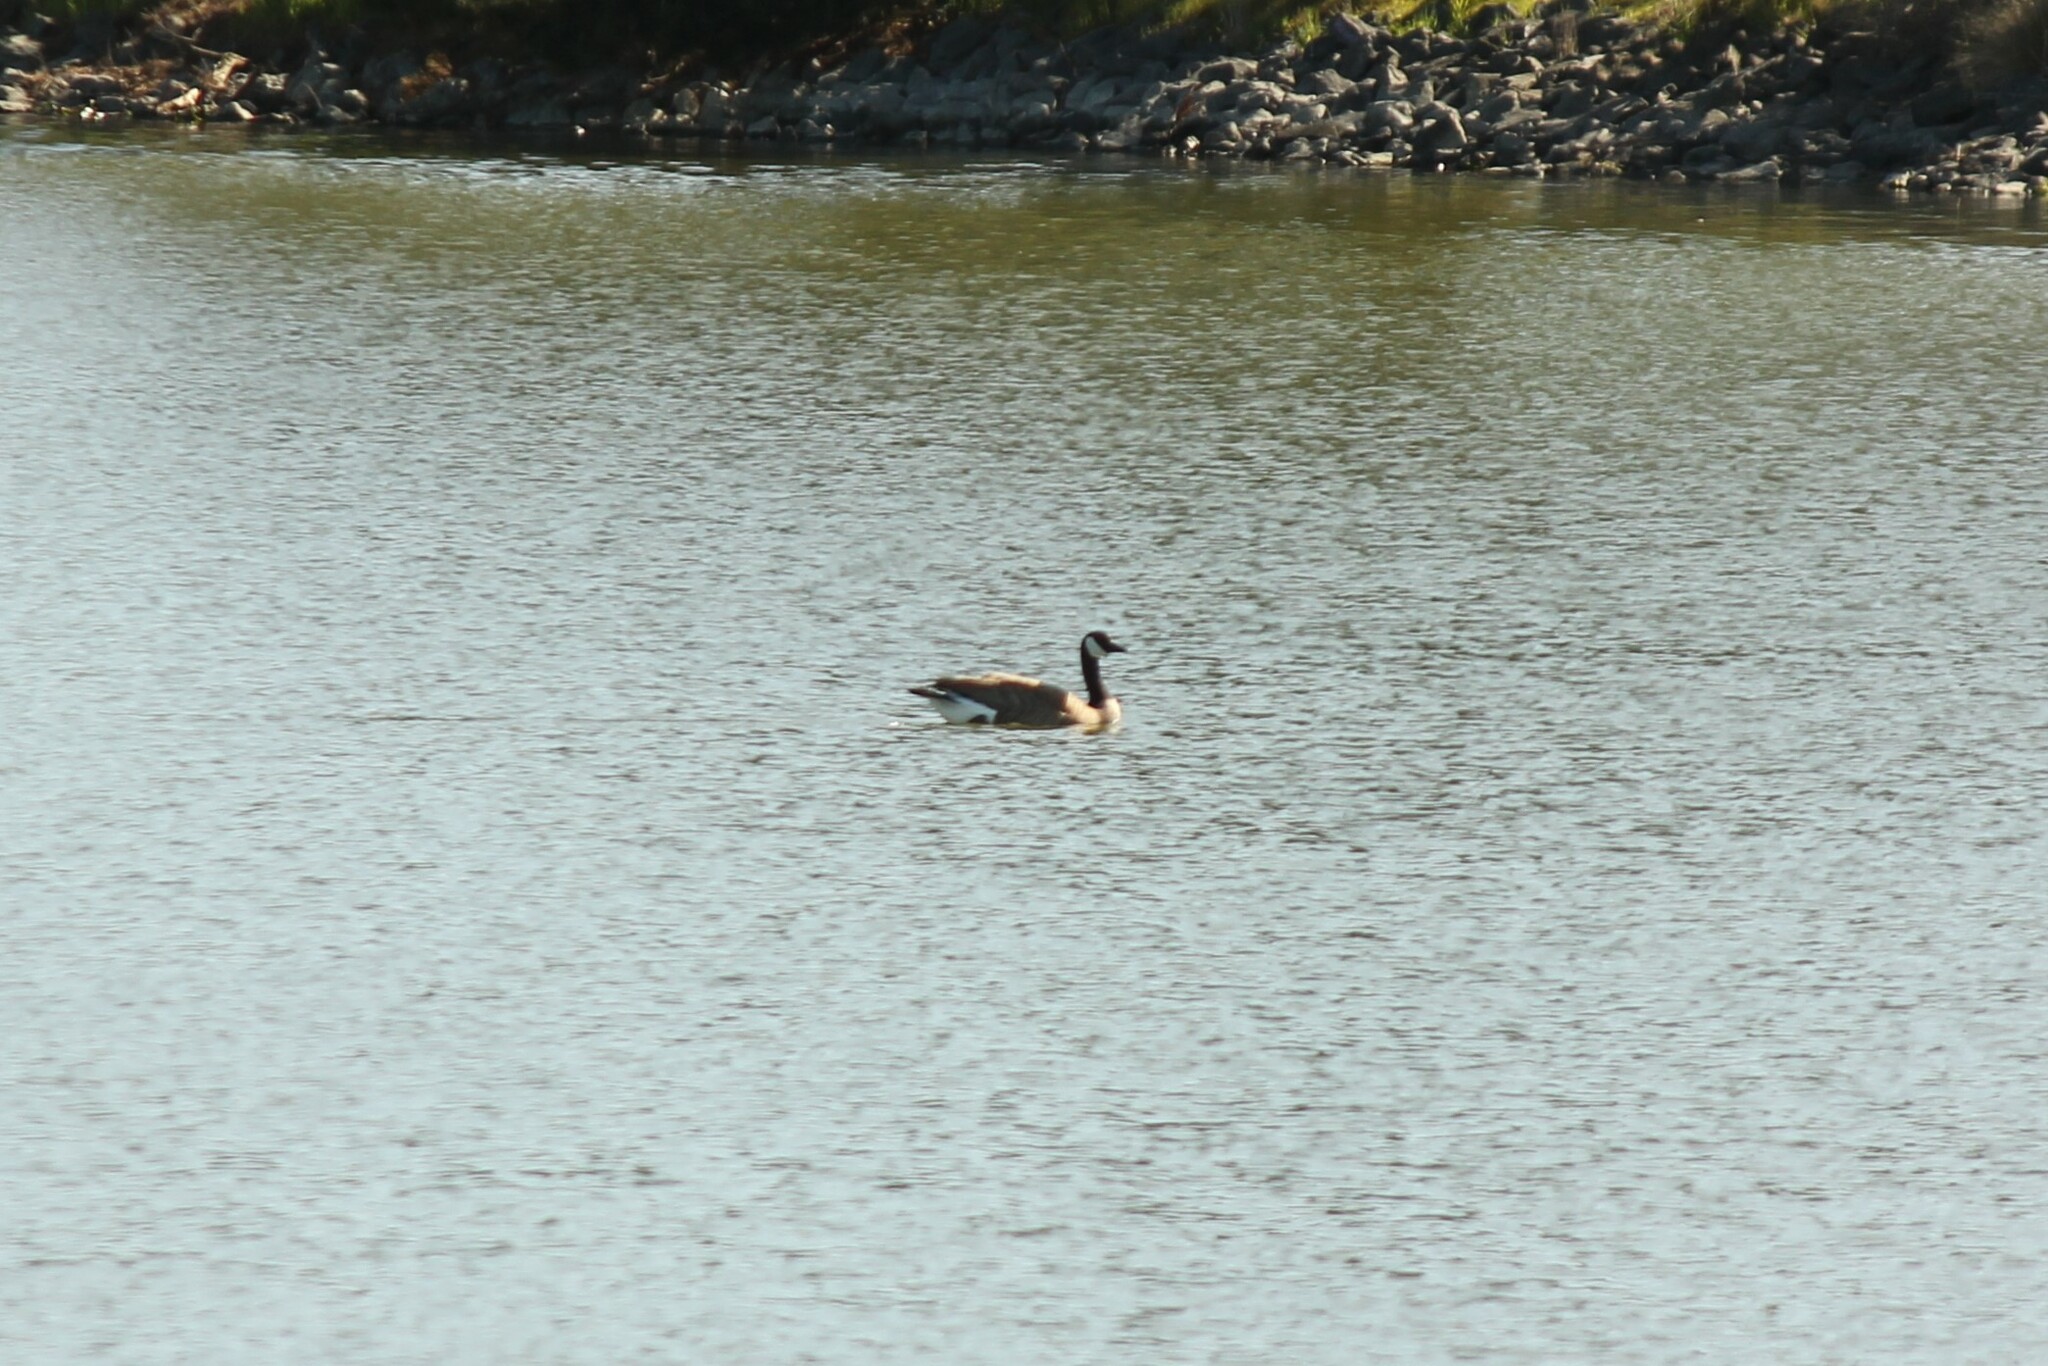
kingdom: Animalia
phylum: Chordata
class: Aves
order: Anseriformes
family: Anatidae
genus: Branta
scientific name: Branta canadensis
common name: Canada goose
